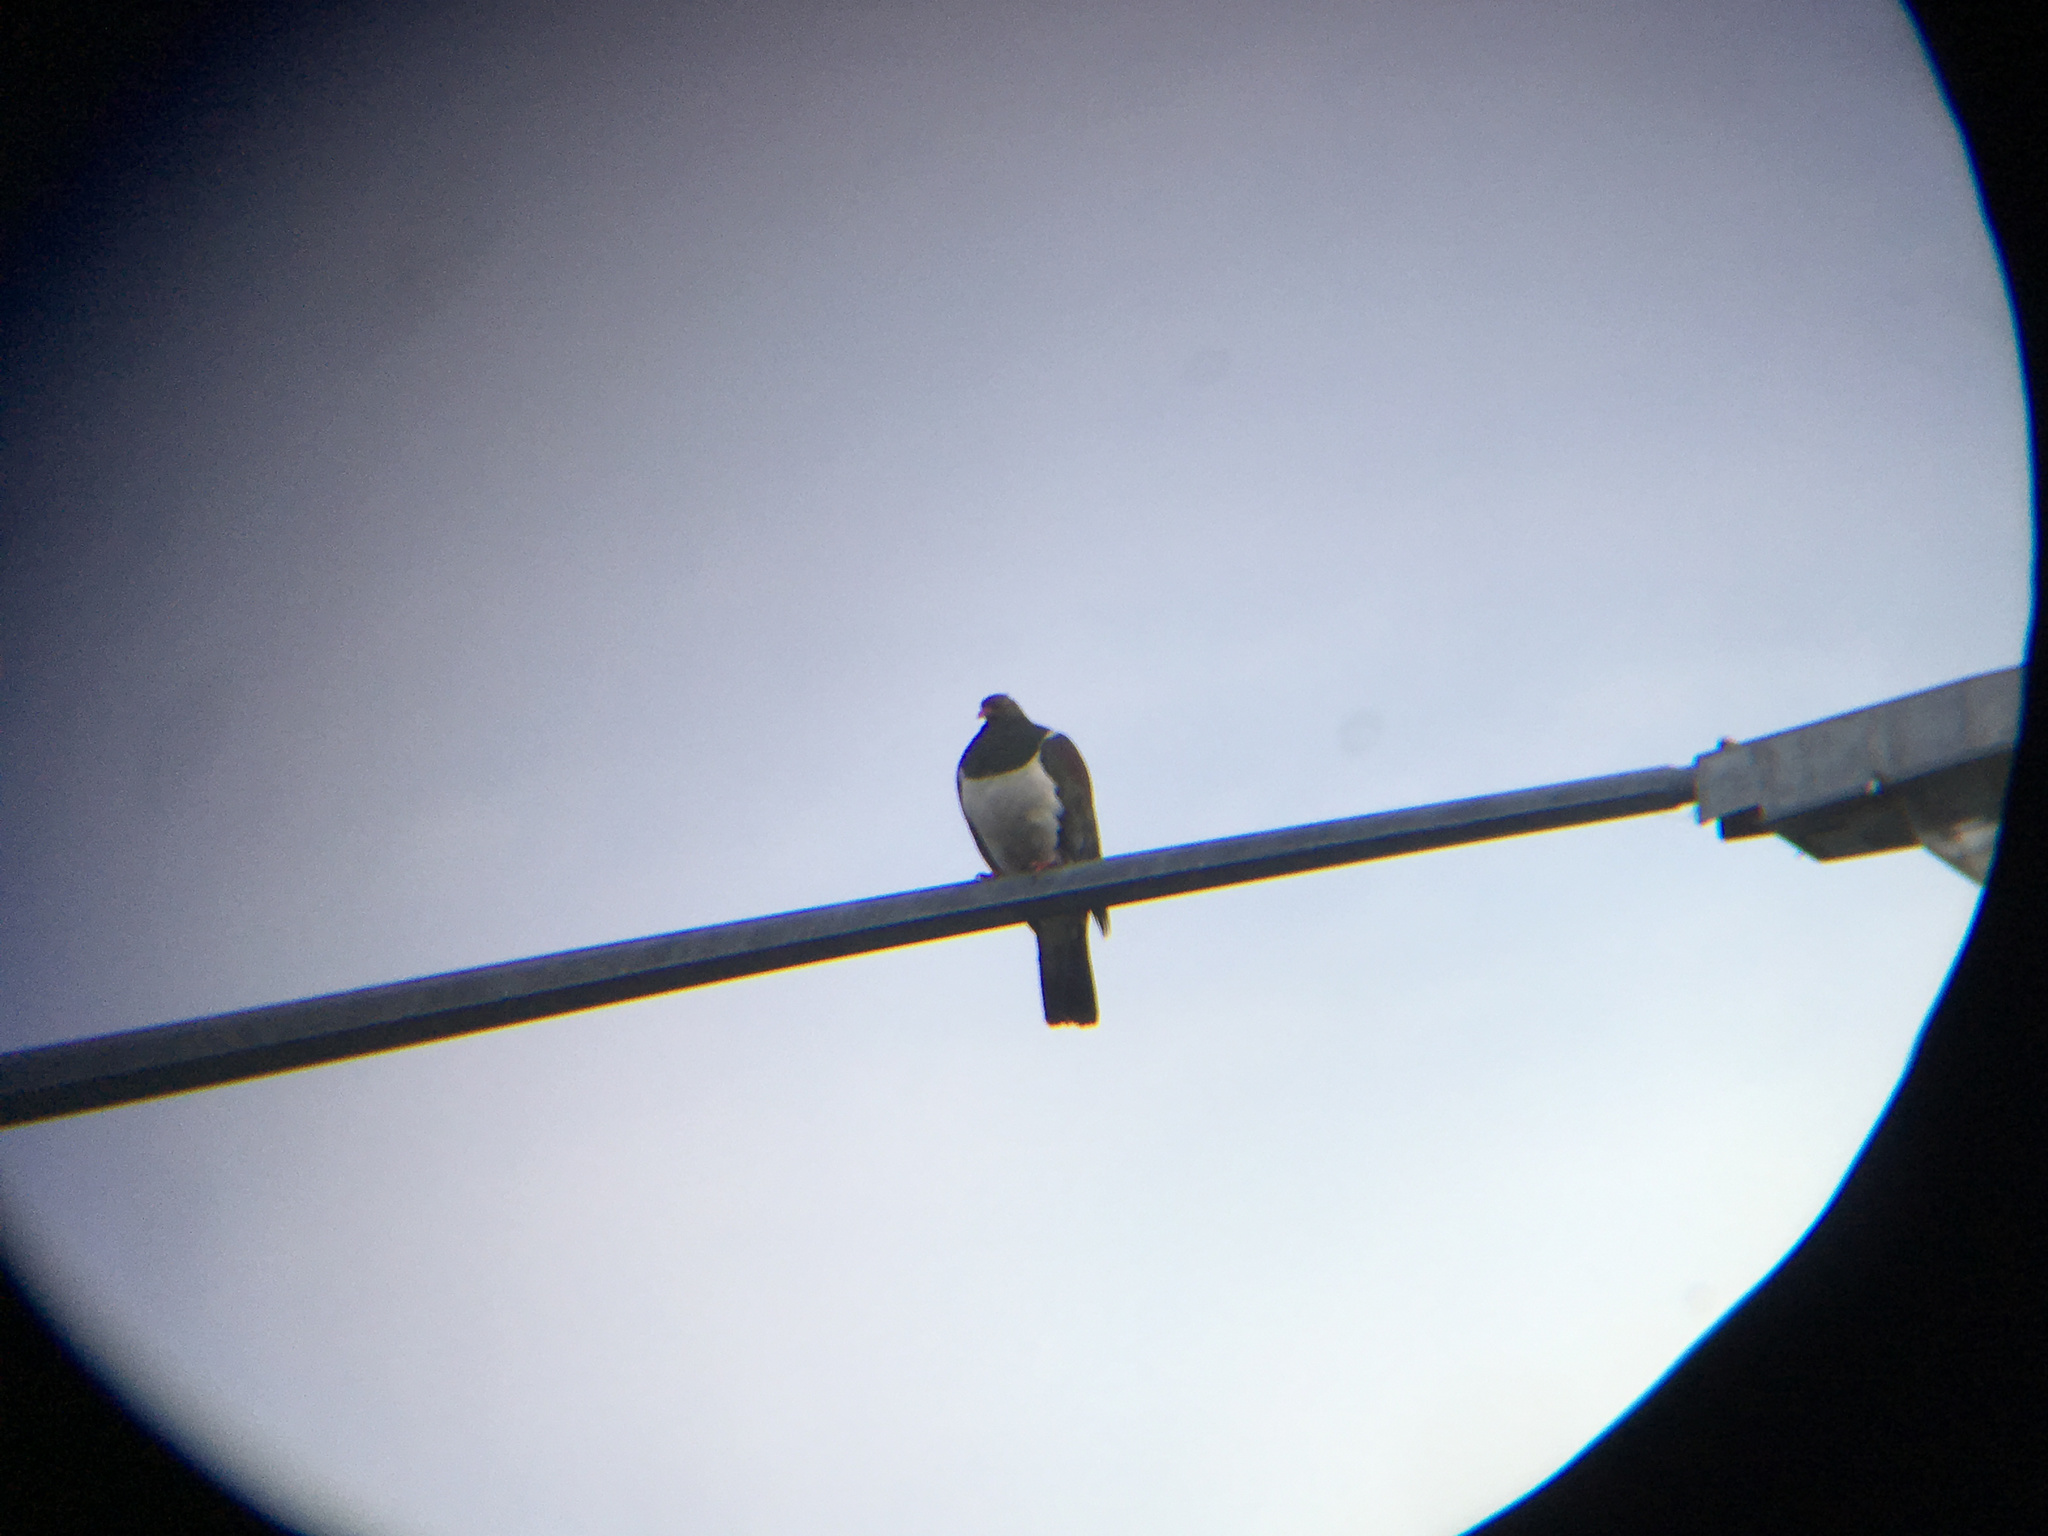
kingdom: Animalia
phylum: Chordata
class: Aves
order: Columbiformes
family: Columbidae
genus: Hemiphaga
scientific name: Hemiphaga novaeseelandiae
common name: New zealand pigeon
